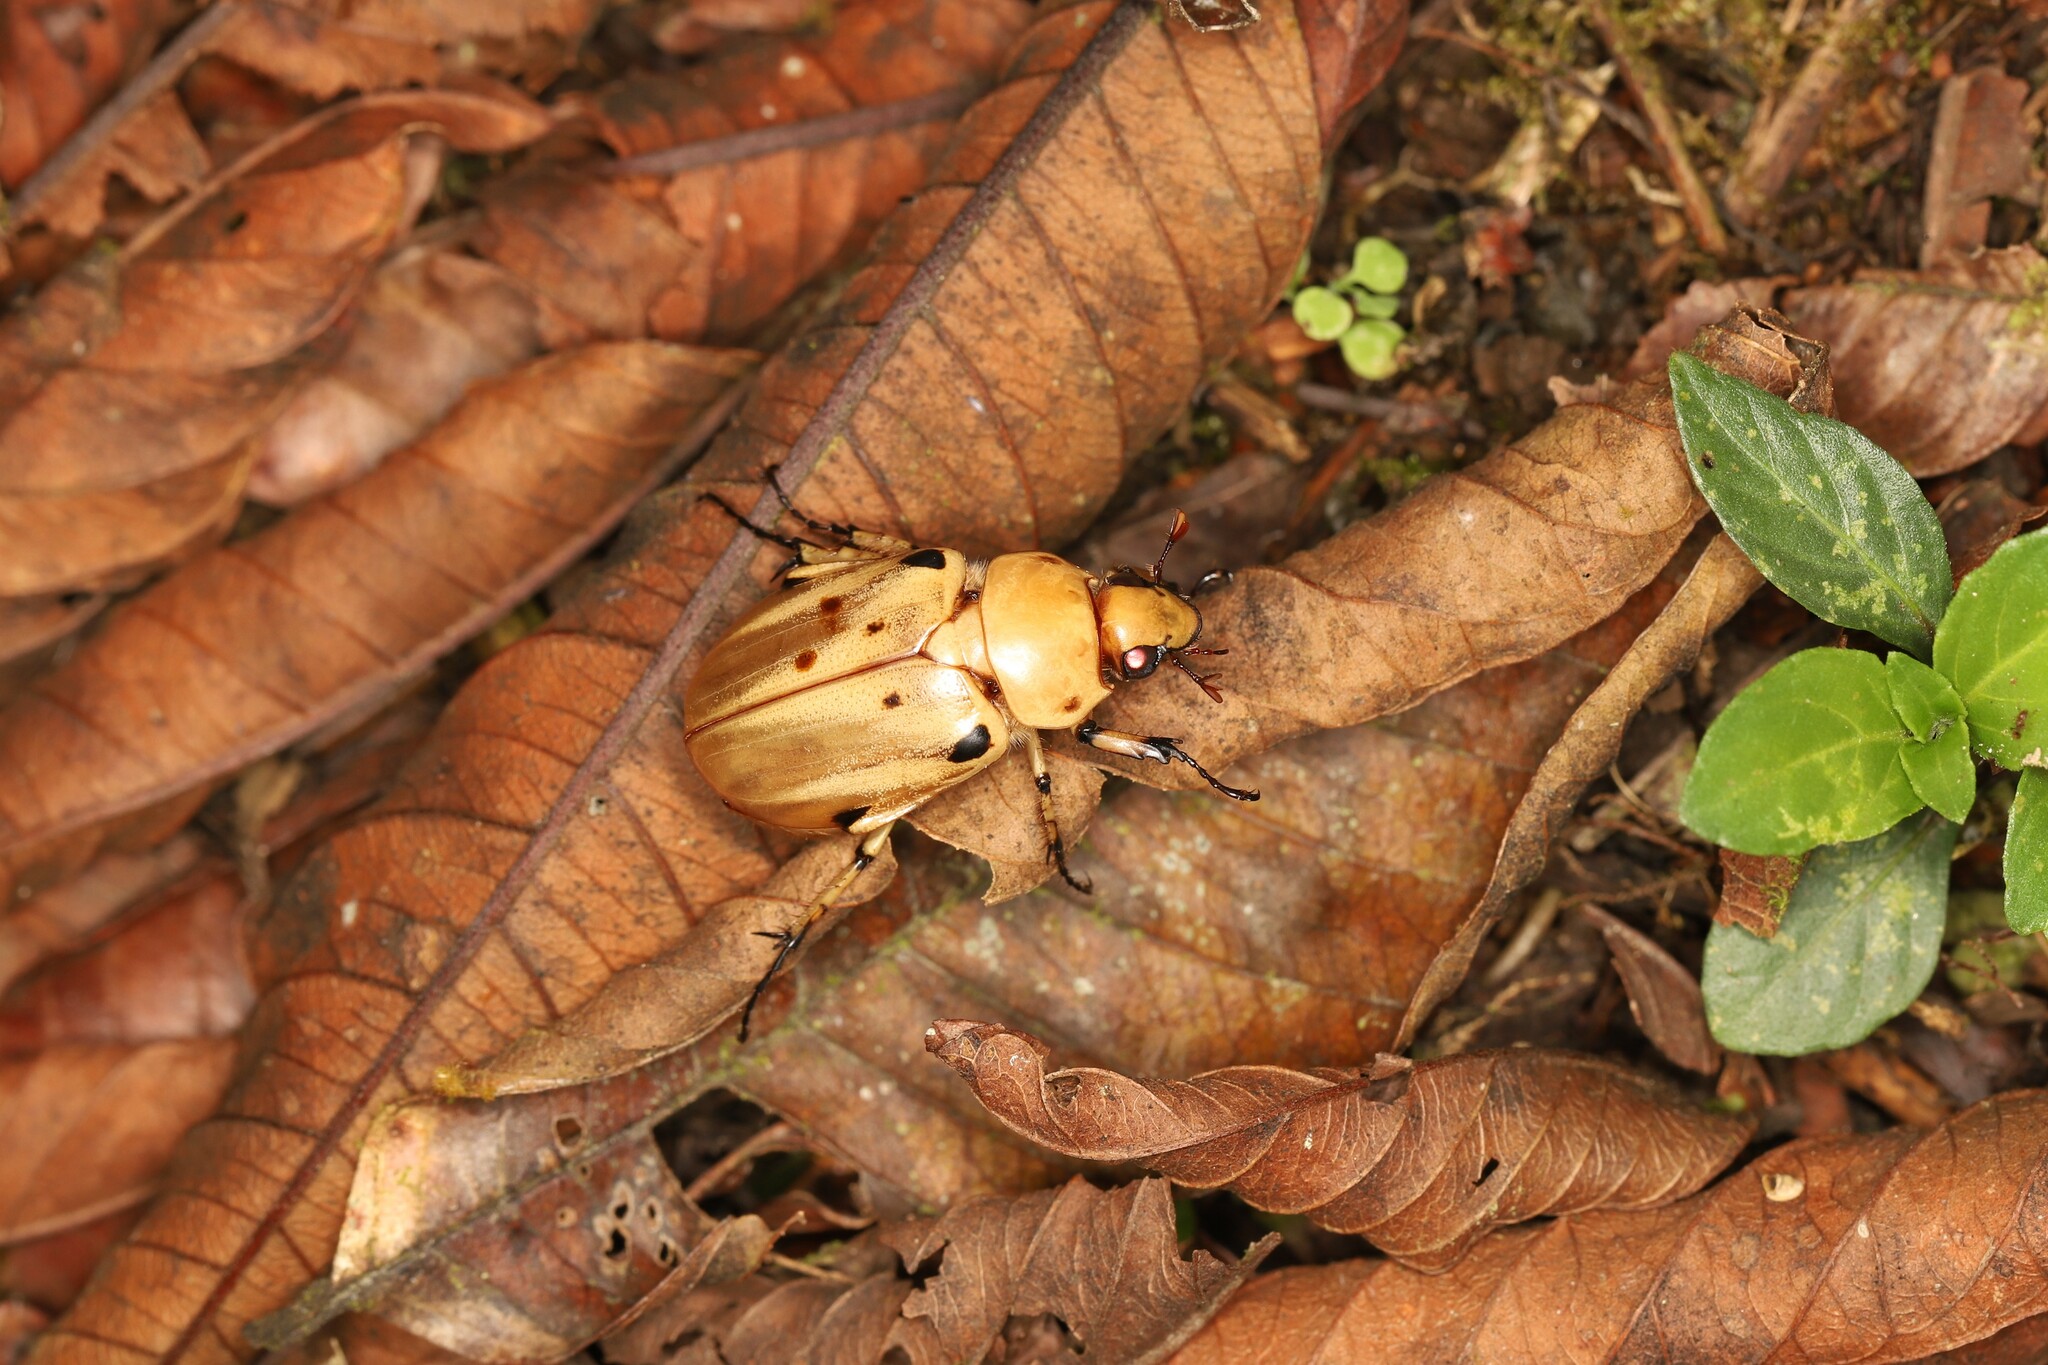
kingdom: Animalia
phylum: Arthropoda
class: Insecta
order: Coleoptera
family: Scarabaeidae
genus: Ancognatha
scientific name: Ancognatha vulgaris
